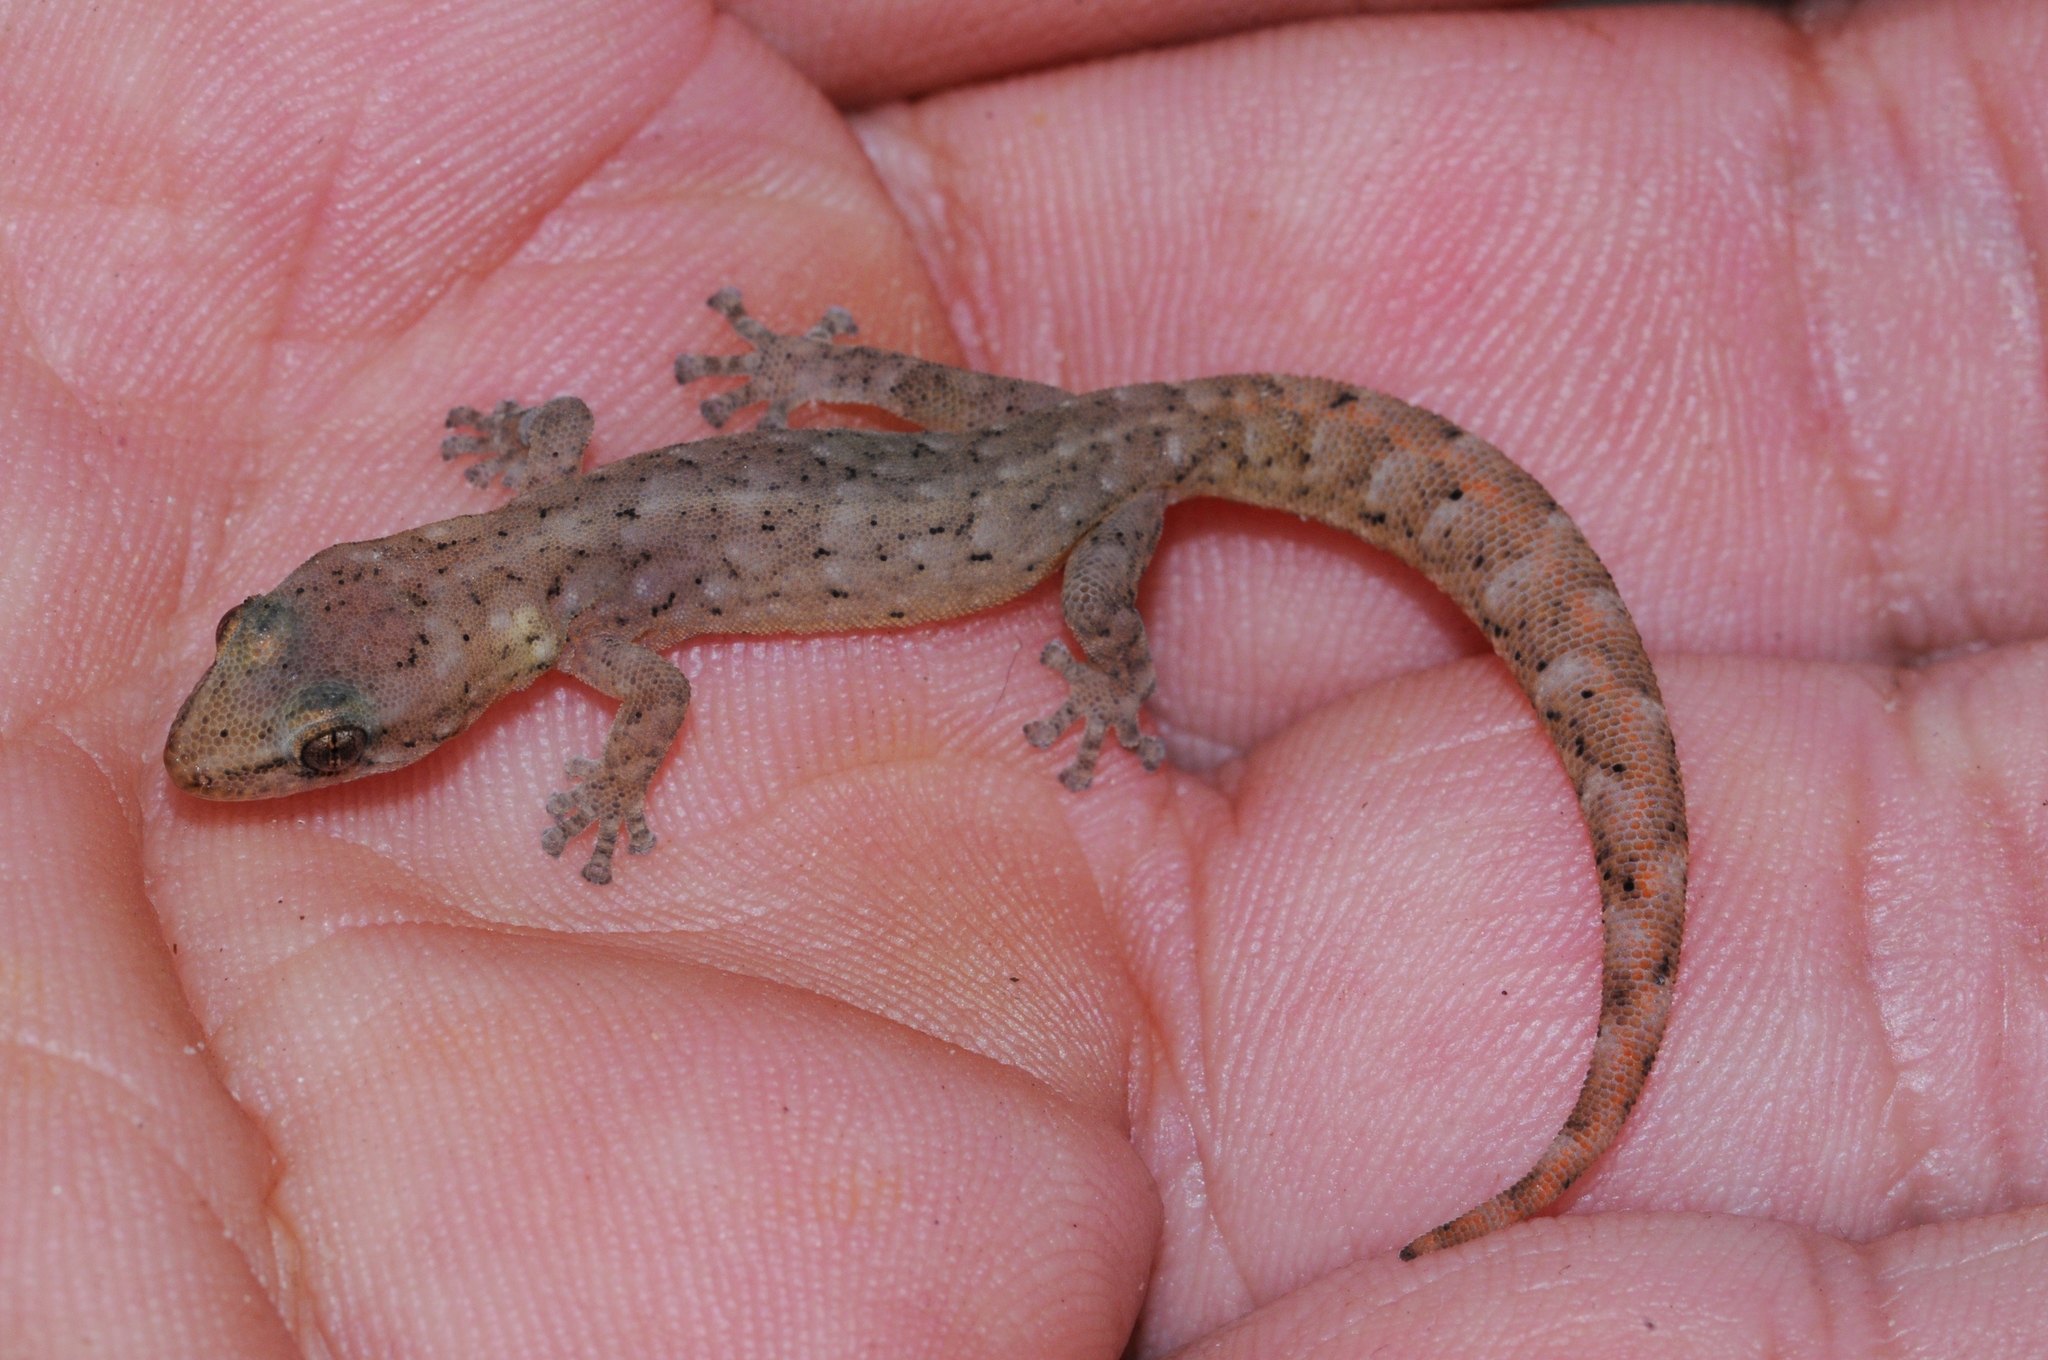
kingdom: Animalia
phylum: Chordata
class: Squamata
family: Gekkonidae
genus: Afrogecko
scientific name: Afrogecko porphyreus
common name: Marbled leaf-toed gecko
